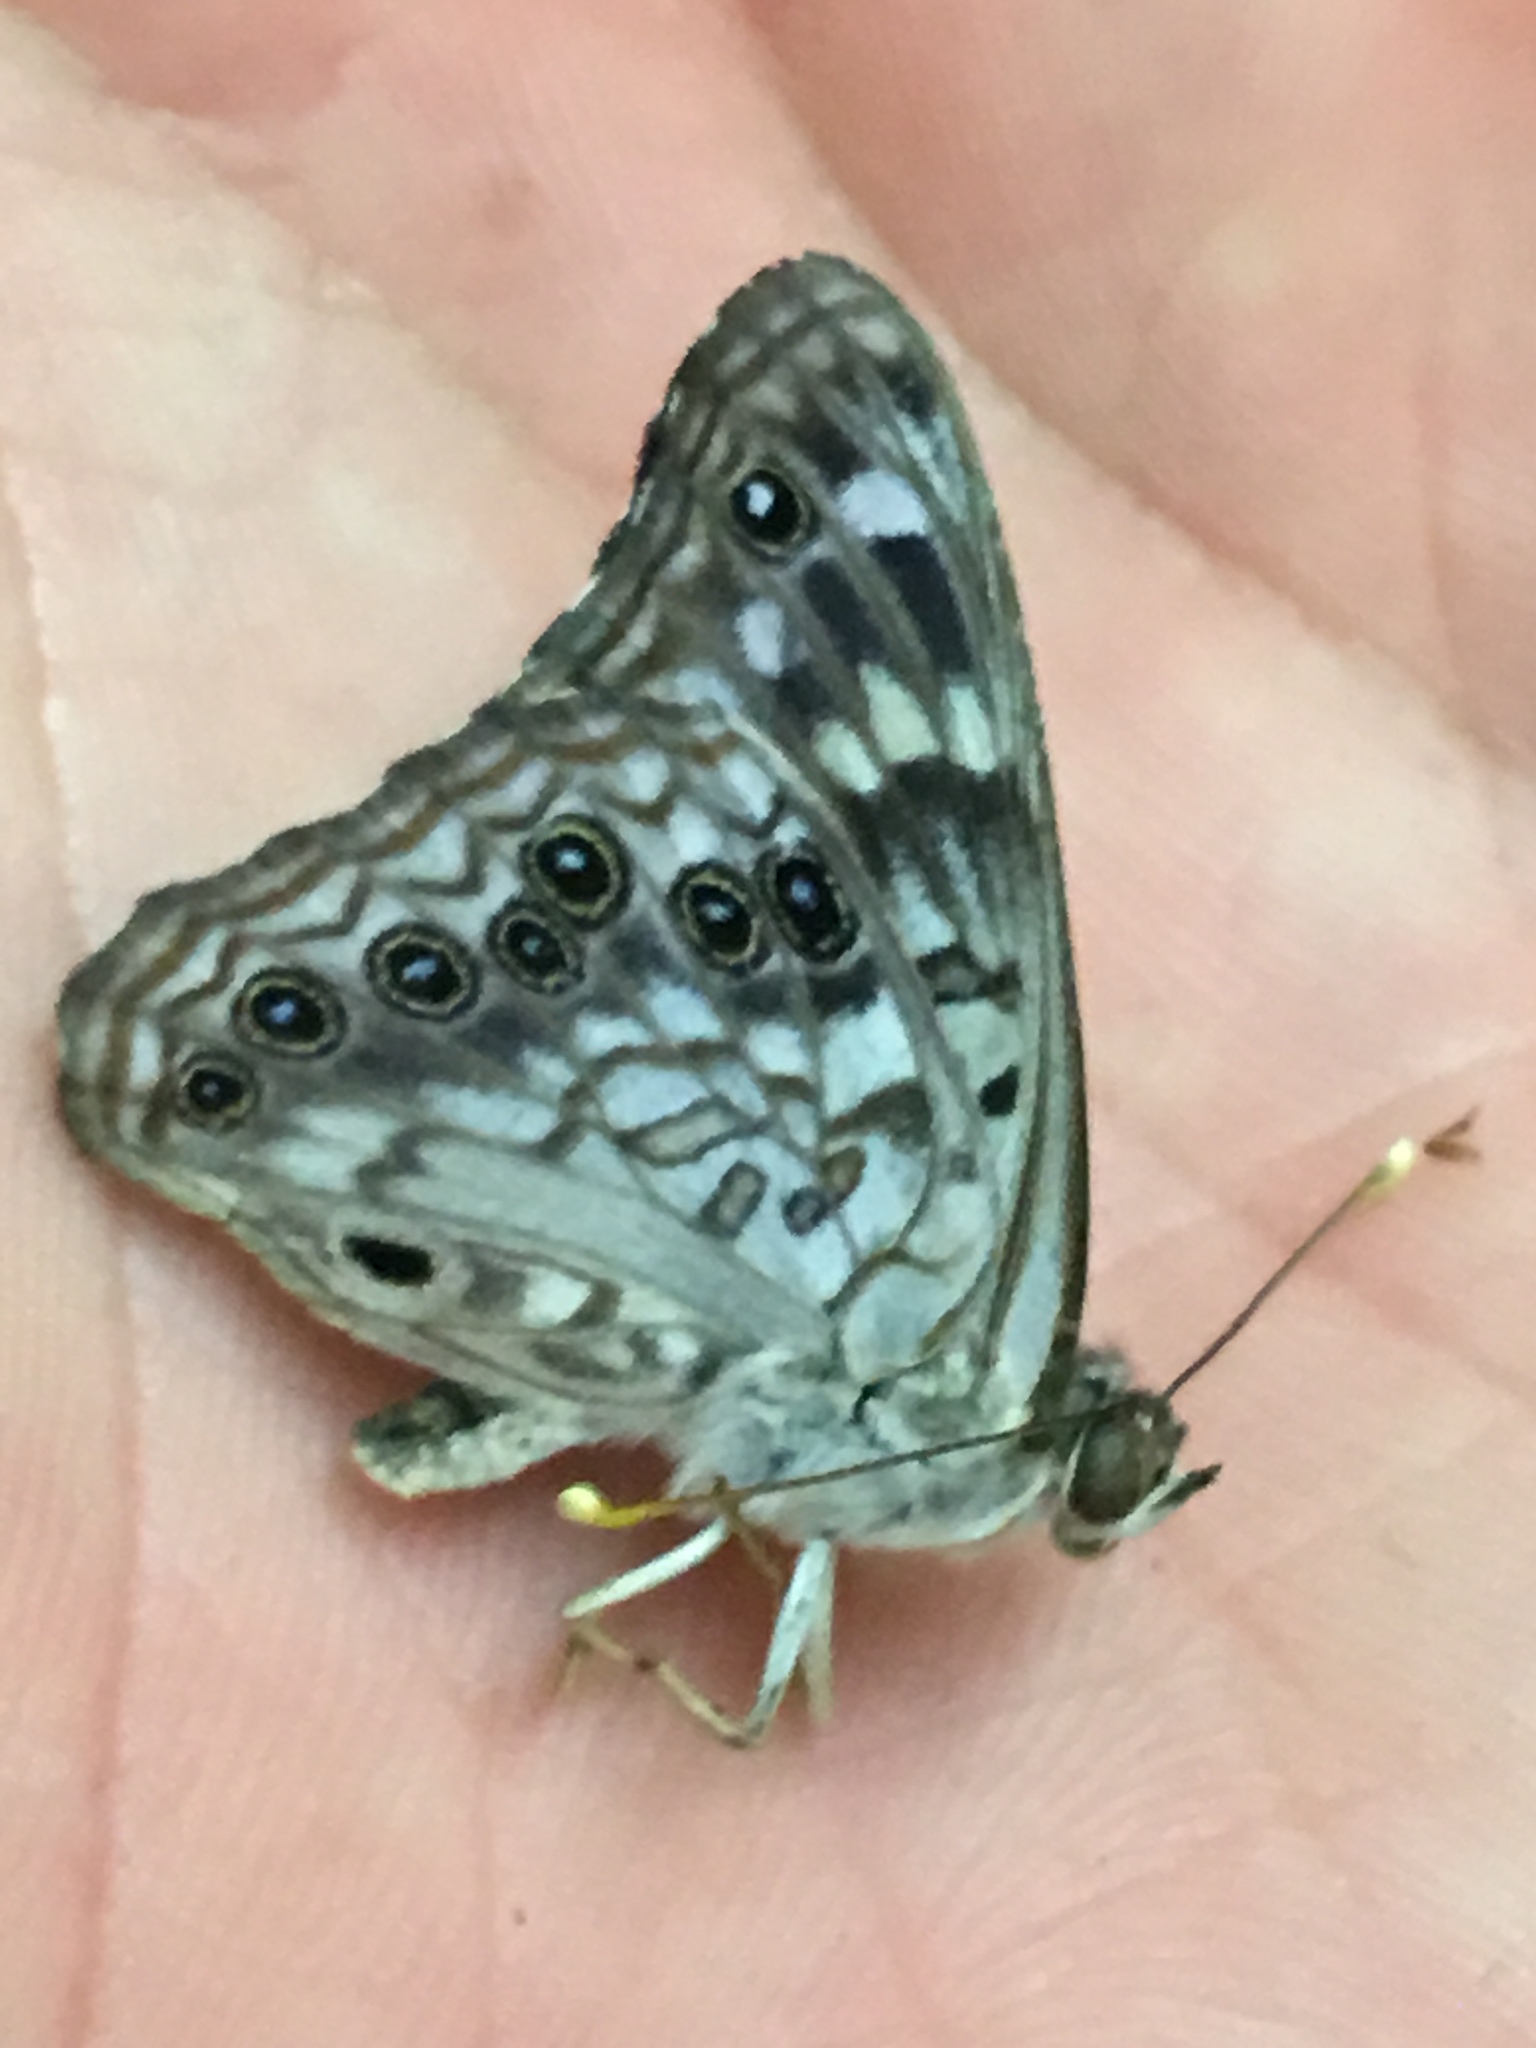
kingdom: Animalia
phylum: Arthropoda
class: Insecta
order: Lepidoptera
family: Nymphalidae
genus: Asterocampa
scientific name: Asterocampa celtis
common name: Hackberry emperor
